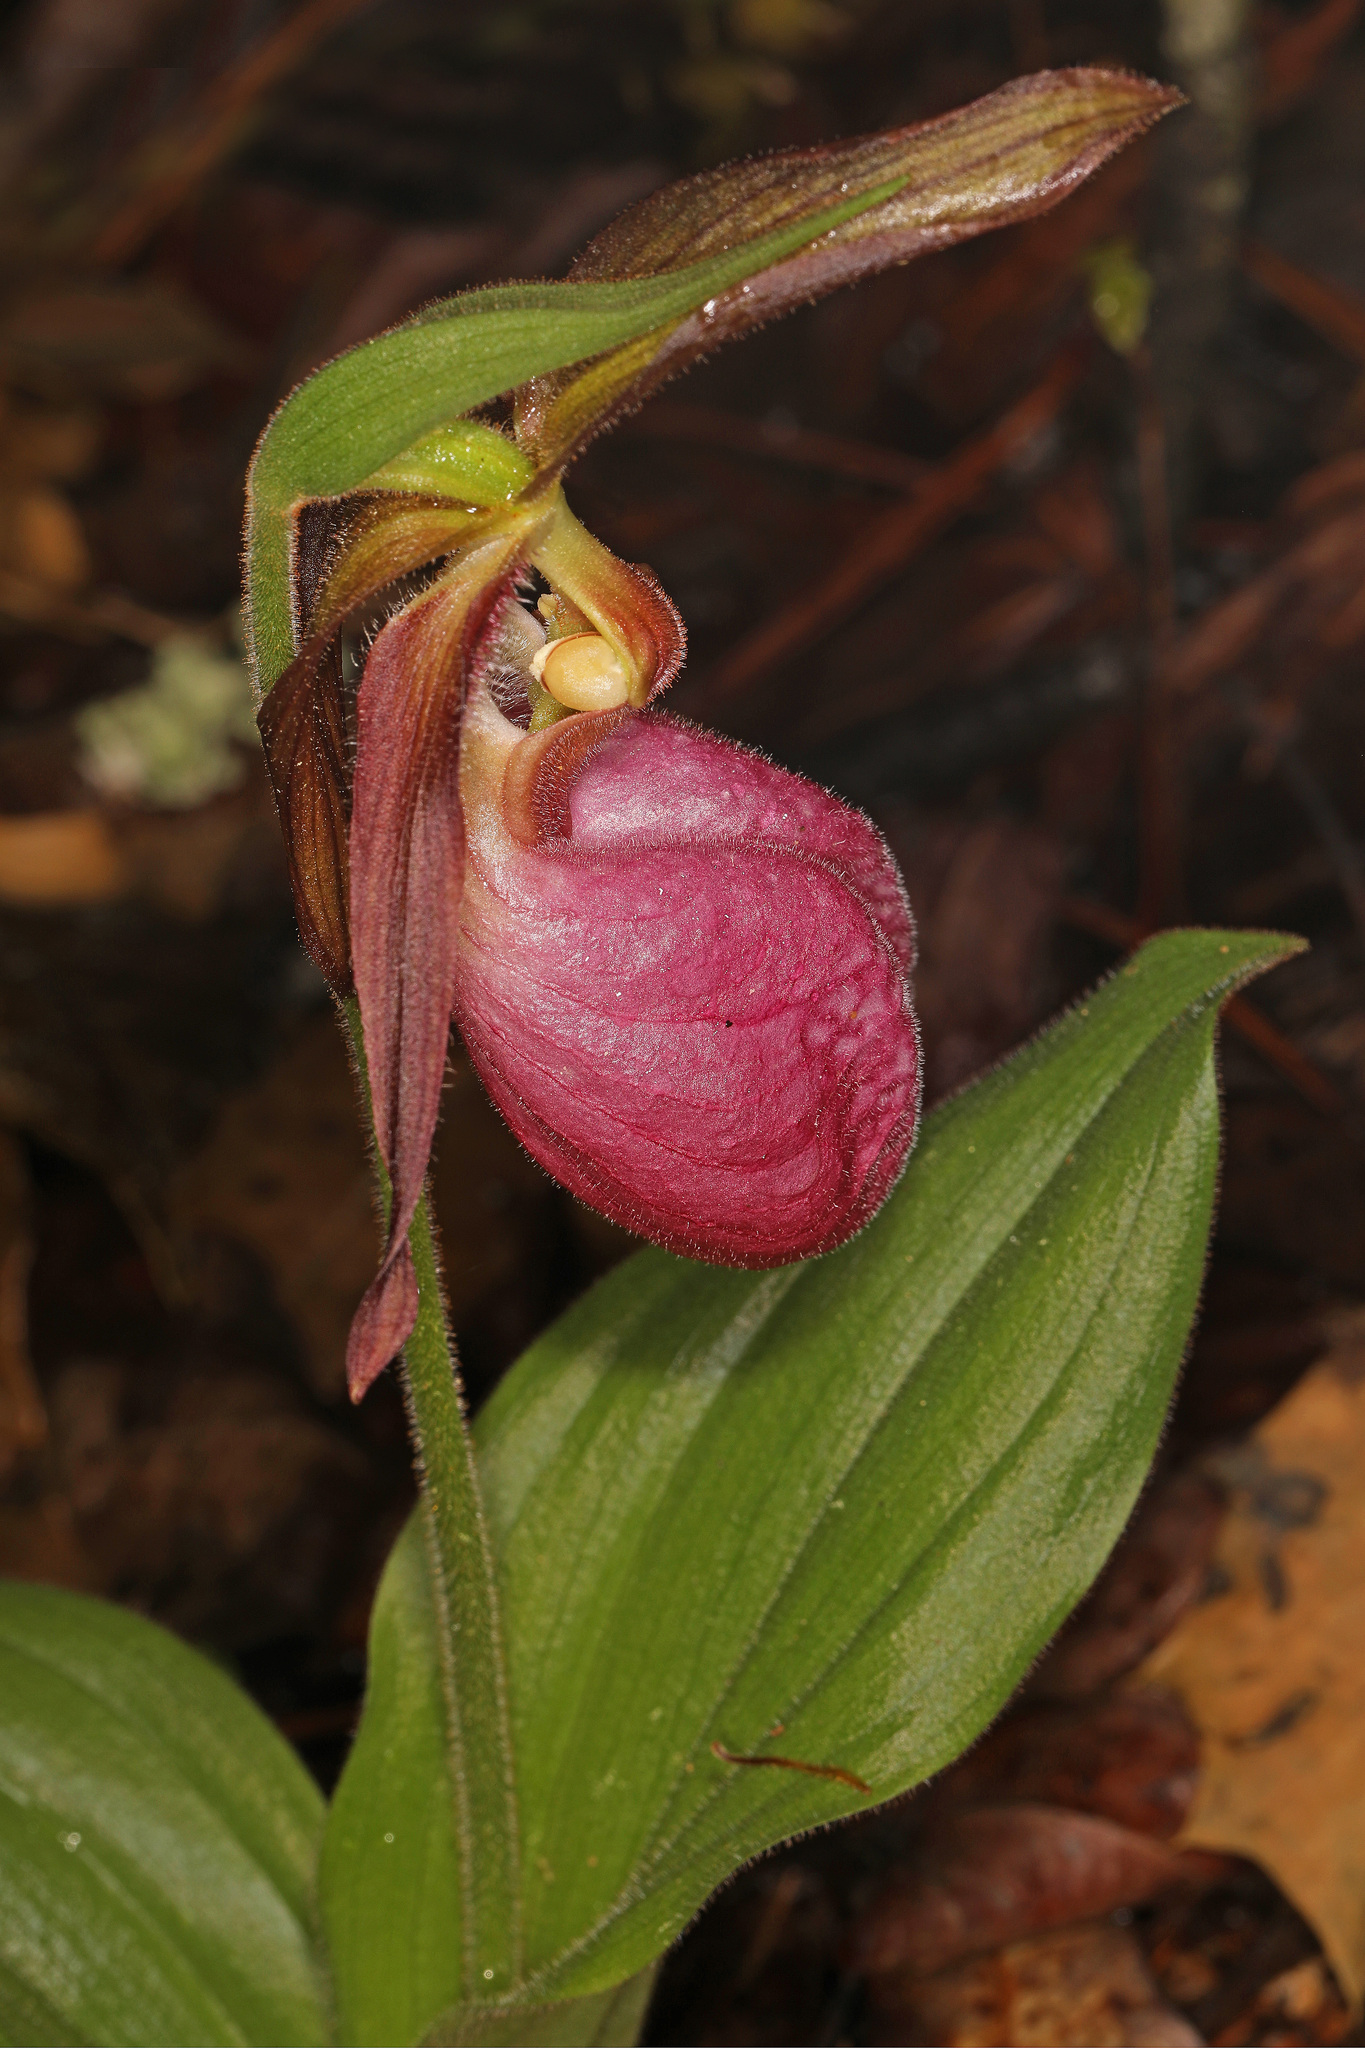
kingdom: Plantae
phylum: Tracheophyta
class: Liliopsida
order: Asparagales
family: Orchidaceae
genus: Cypripedium
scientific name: Cypripedium acaule
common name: Pink lady's-slipper
